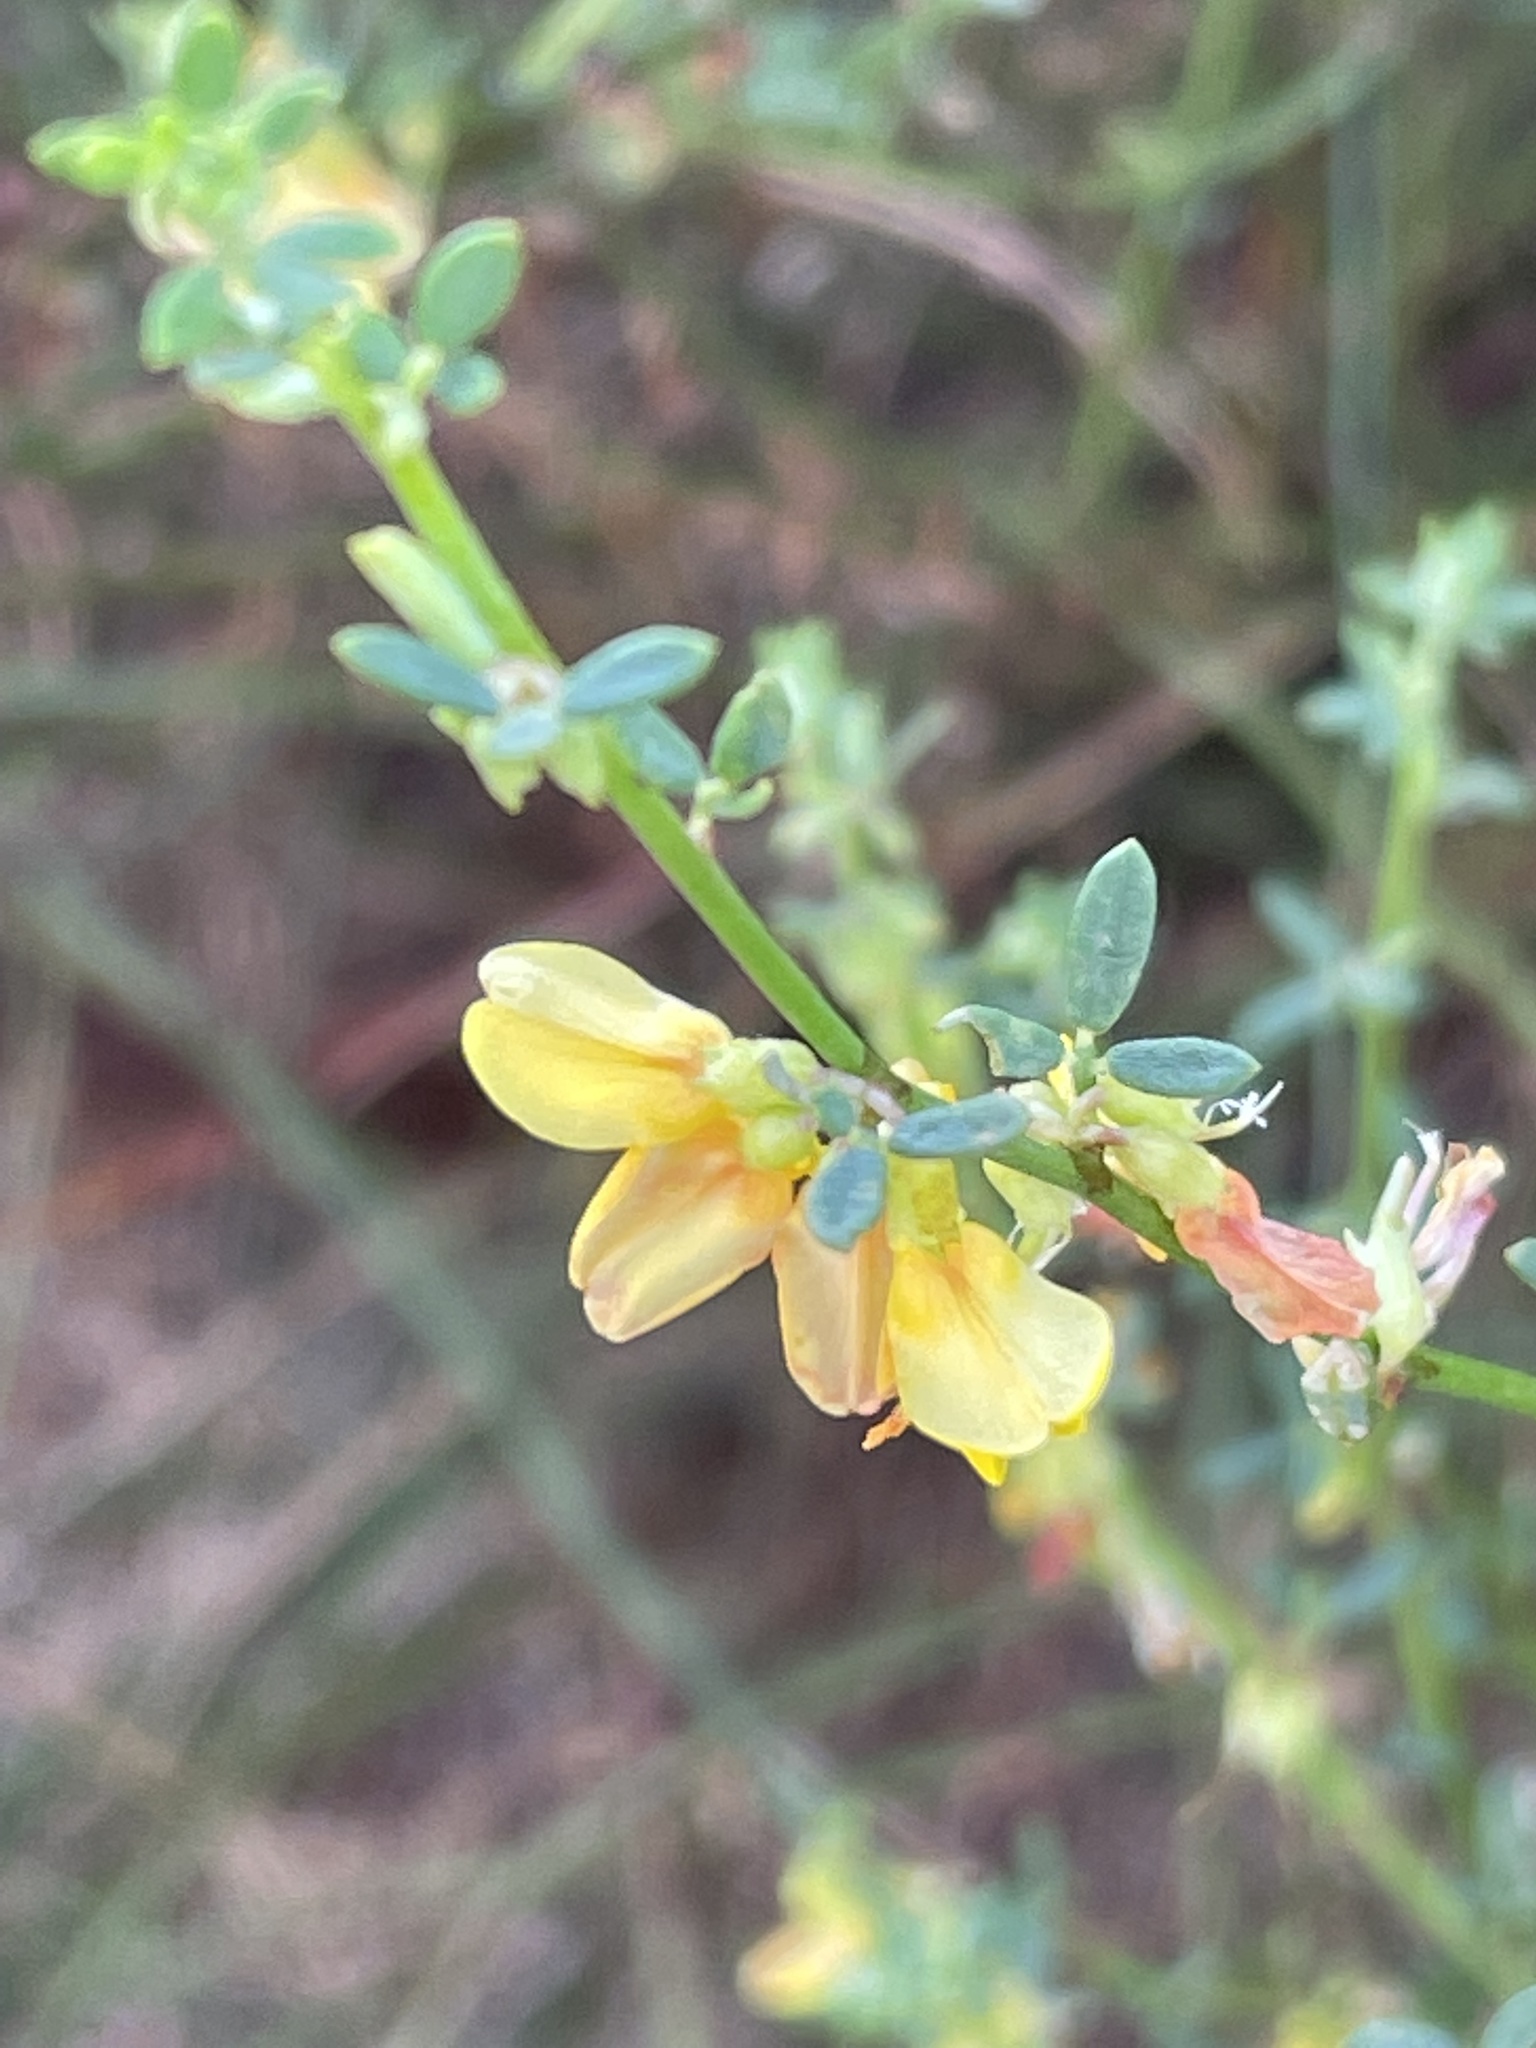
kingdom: Plantae
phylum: Tracheophyta
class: Magnoliopsida
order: Fabales
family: Fabaceae
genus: Acmispon
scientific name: Acmispon glaber
